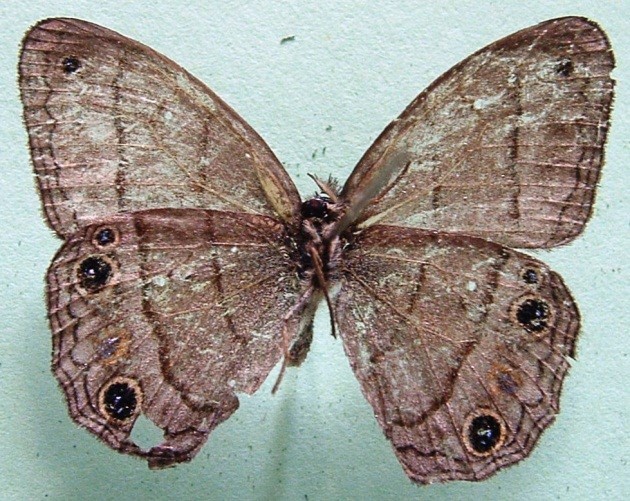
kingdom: Animalia
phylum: Arthropoda
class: Insecta
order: Lepidoptera
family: Nymphalidae
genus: Euptychia
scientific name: Euptychia Cissia pompilia
